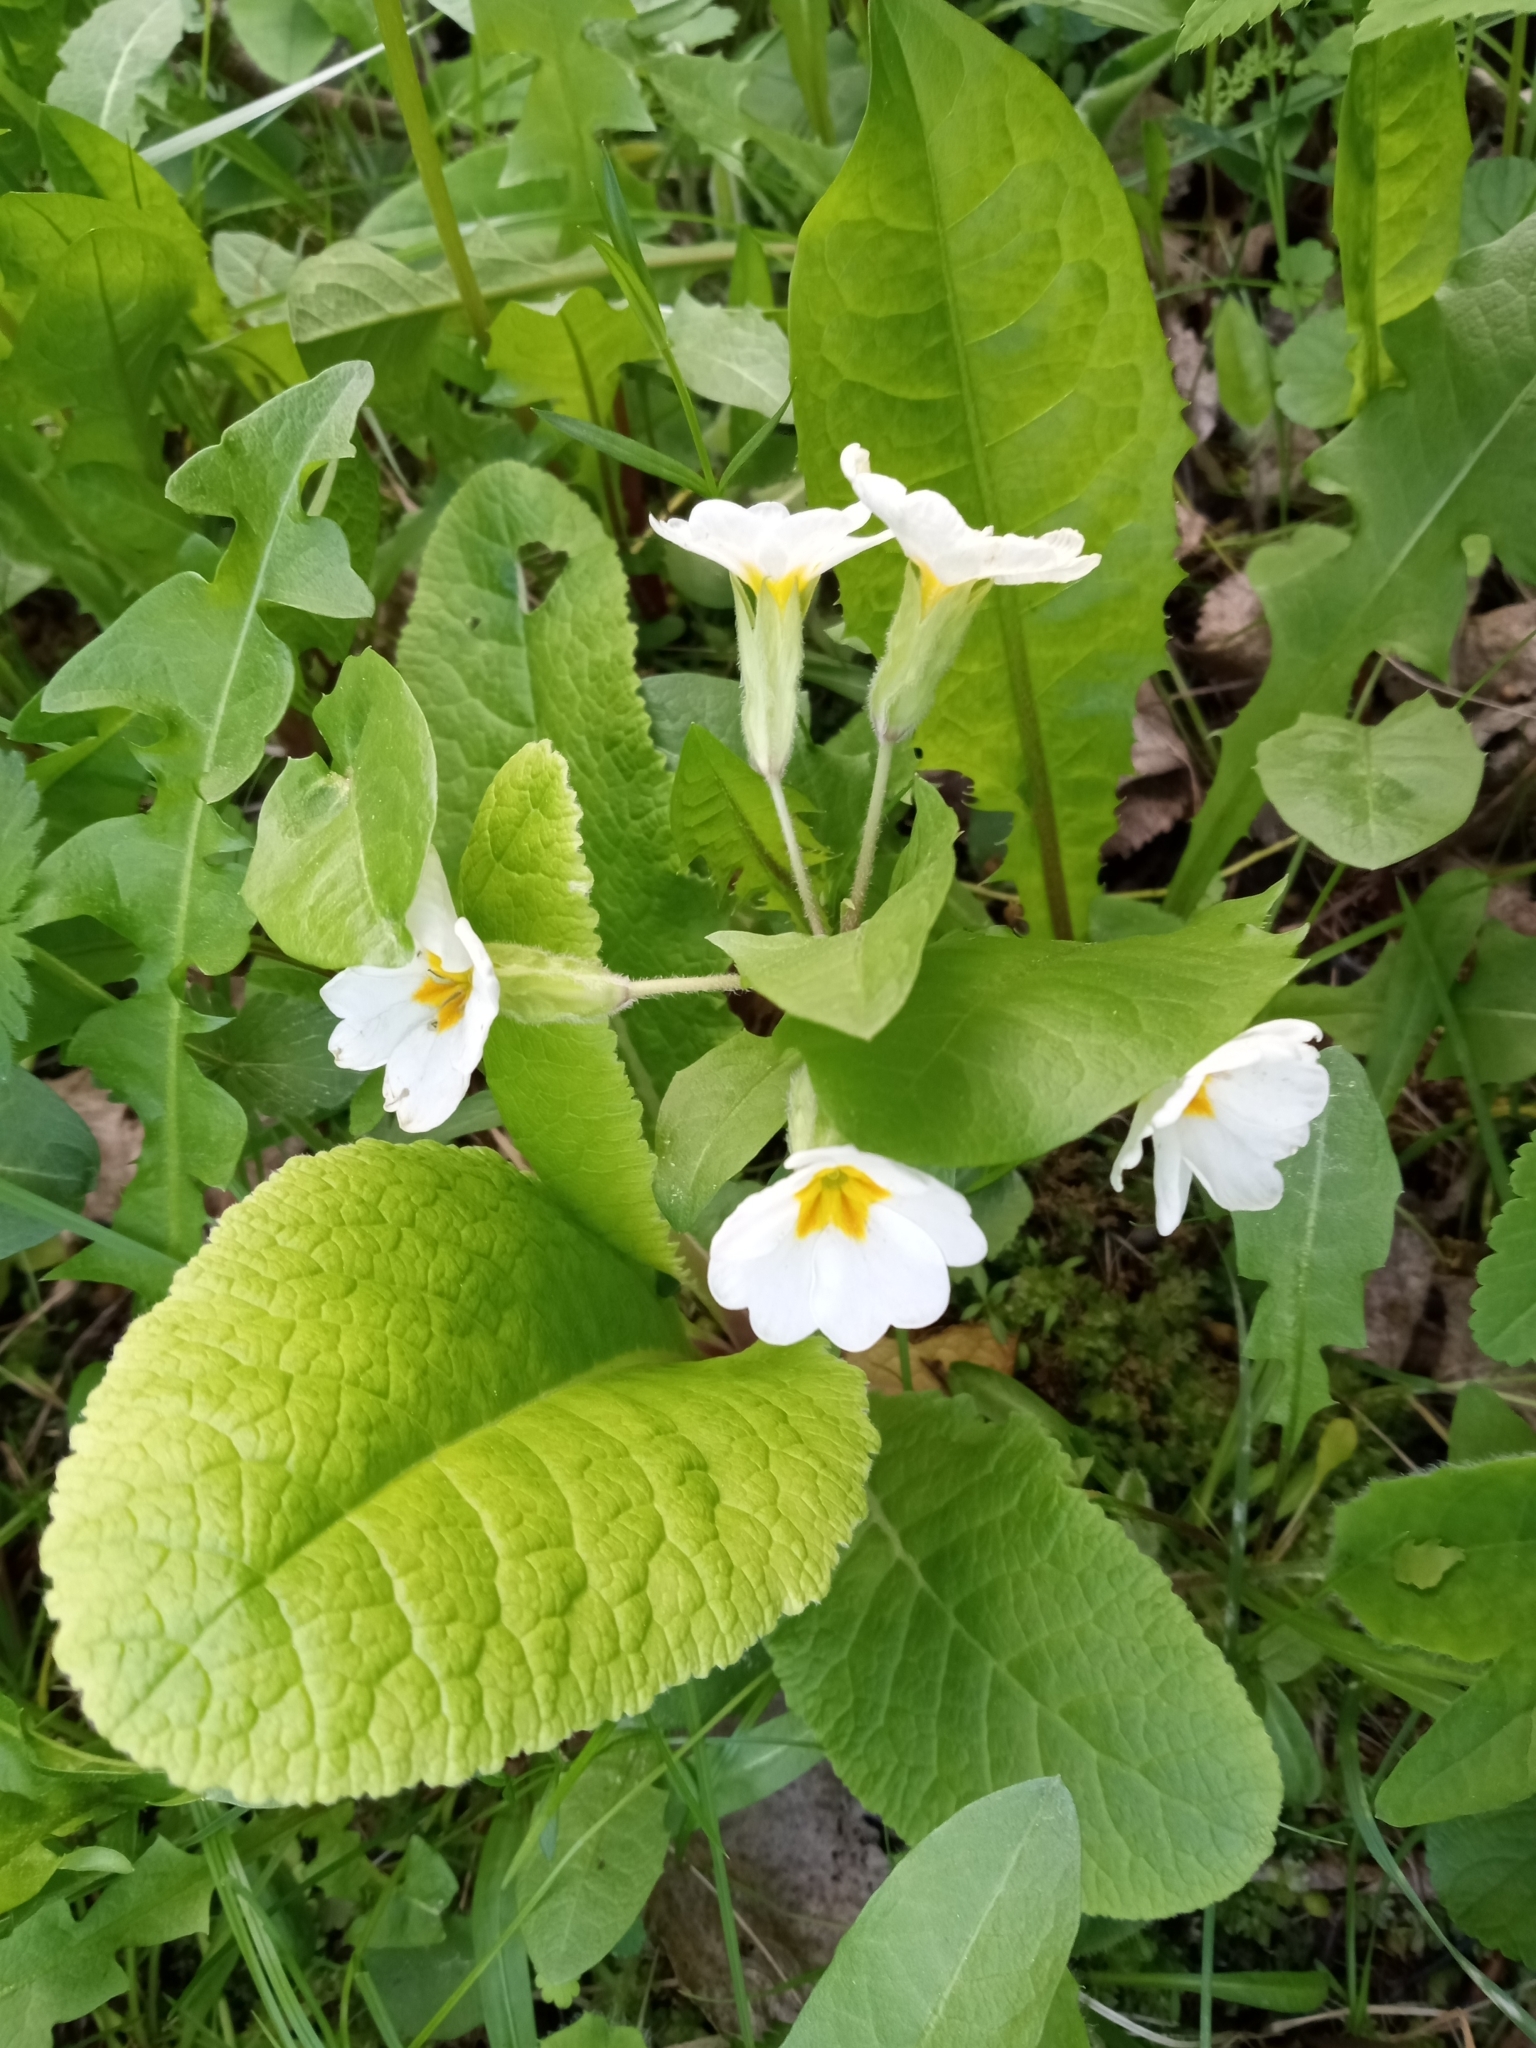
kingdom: Plantae
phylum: Tracheophyta
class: Magnoliopsida
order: Ericales
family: Primulaceae
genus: Primula
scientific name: Primula polyantha
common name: False oxlip
